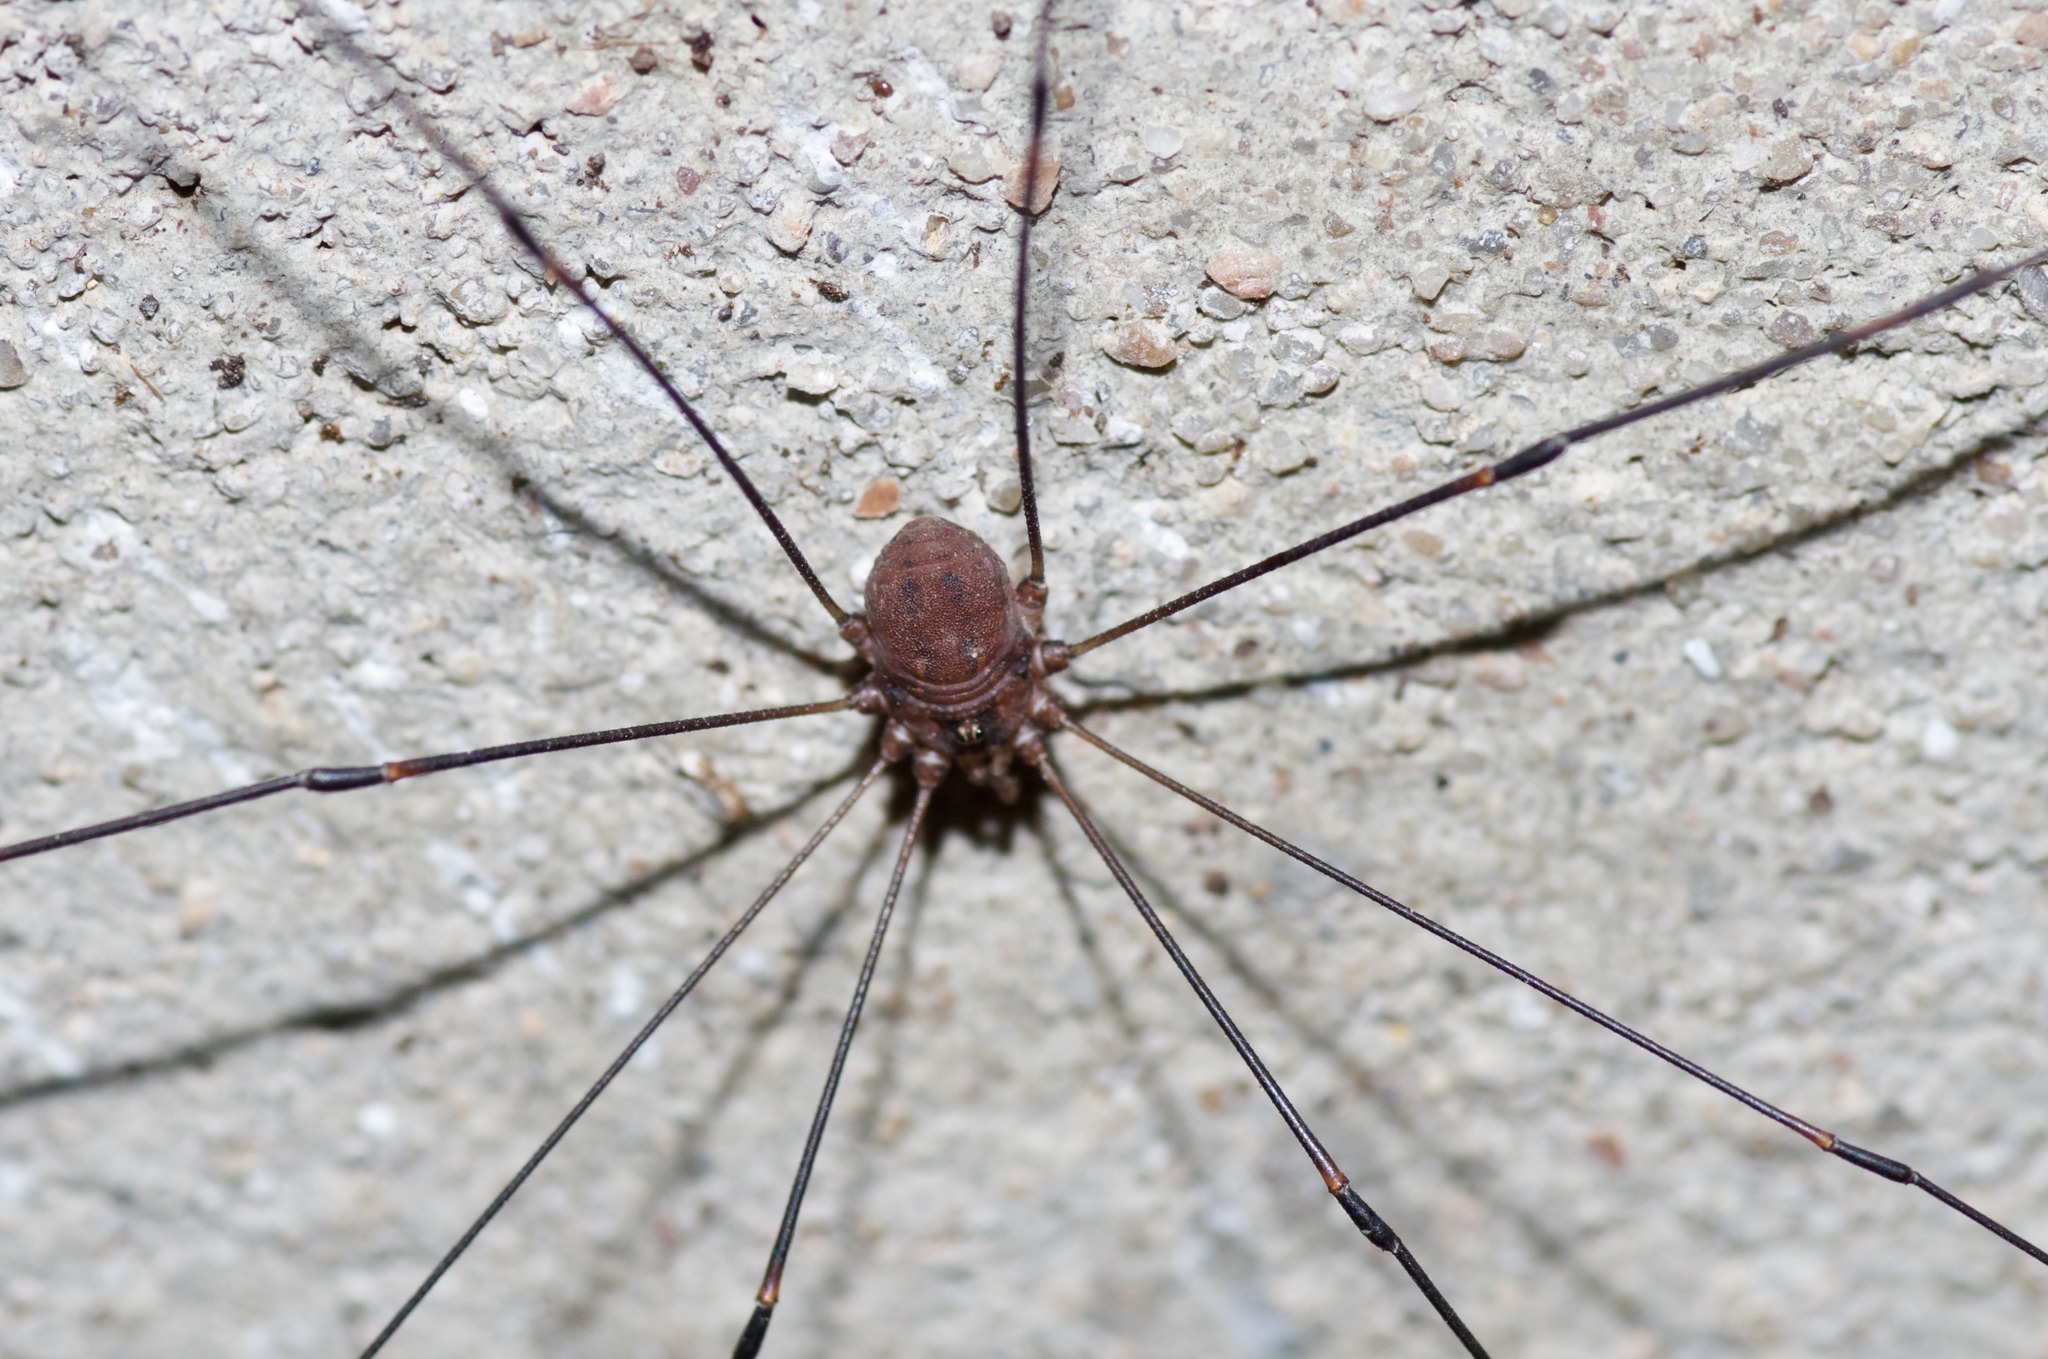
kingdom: Animalia
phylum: Arthropoda
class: Arachnida
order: Opiliones
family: Sclerosomatidae
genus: Leiobunum
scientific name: Leiobunum townsendi
